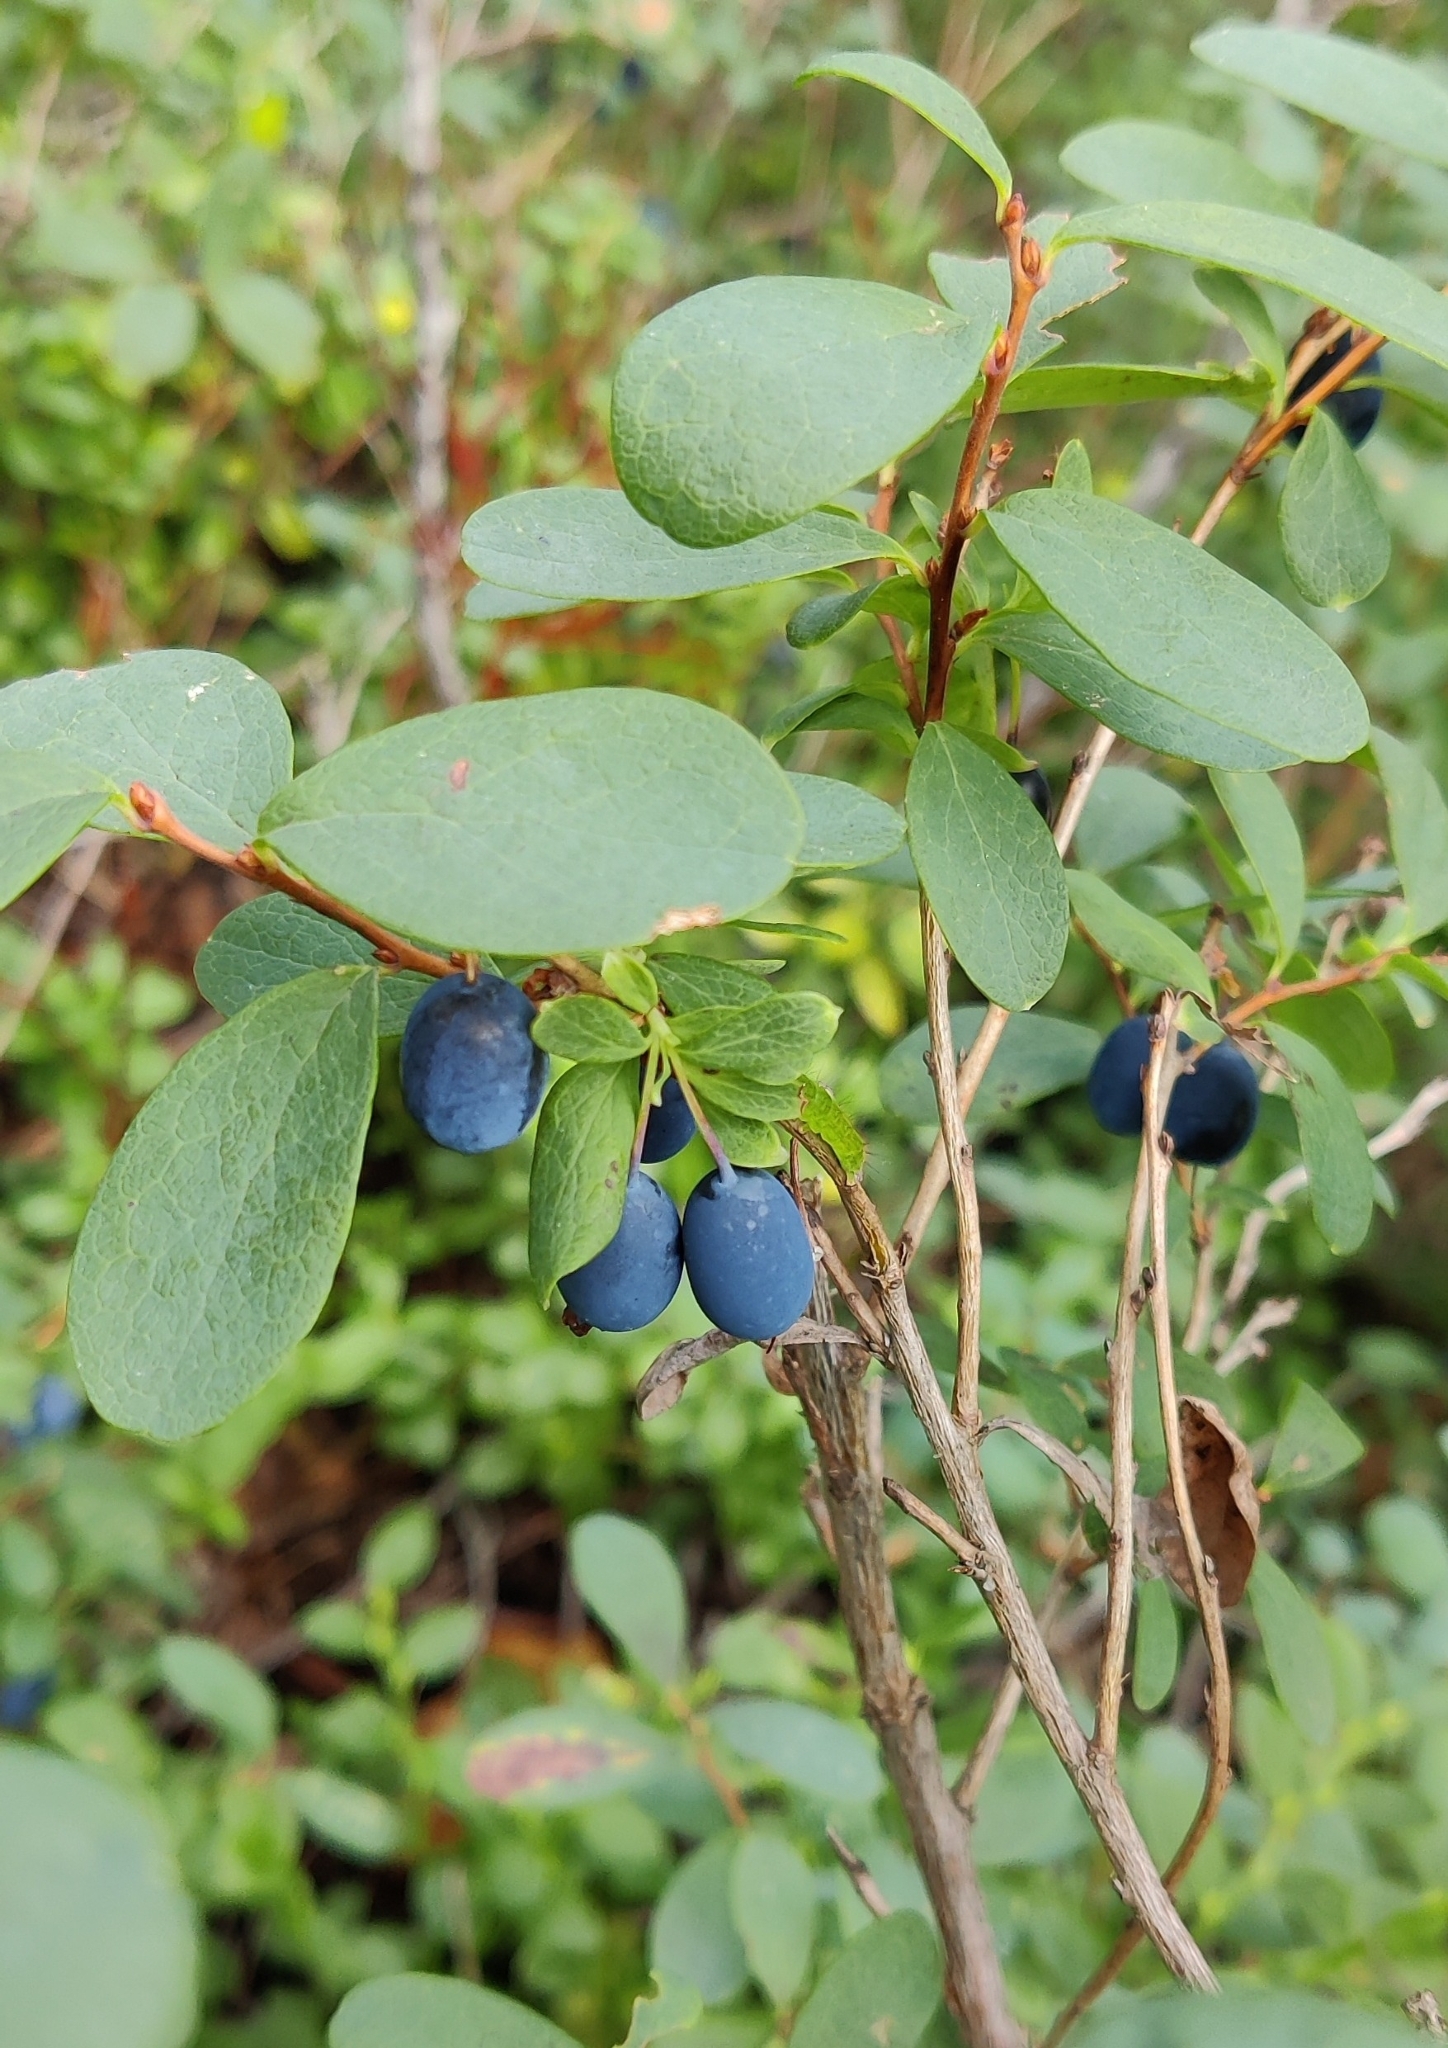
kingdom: Plantae
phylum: Tracheophyta
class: Magnoliopsida
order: Ericales
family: Ericaceae
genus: Vaccinium
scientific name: Vaccinium uliginosum
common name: Bog bilberry
